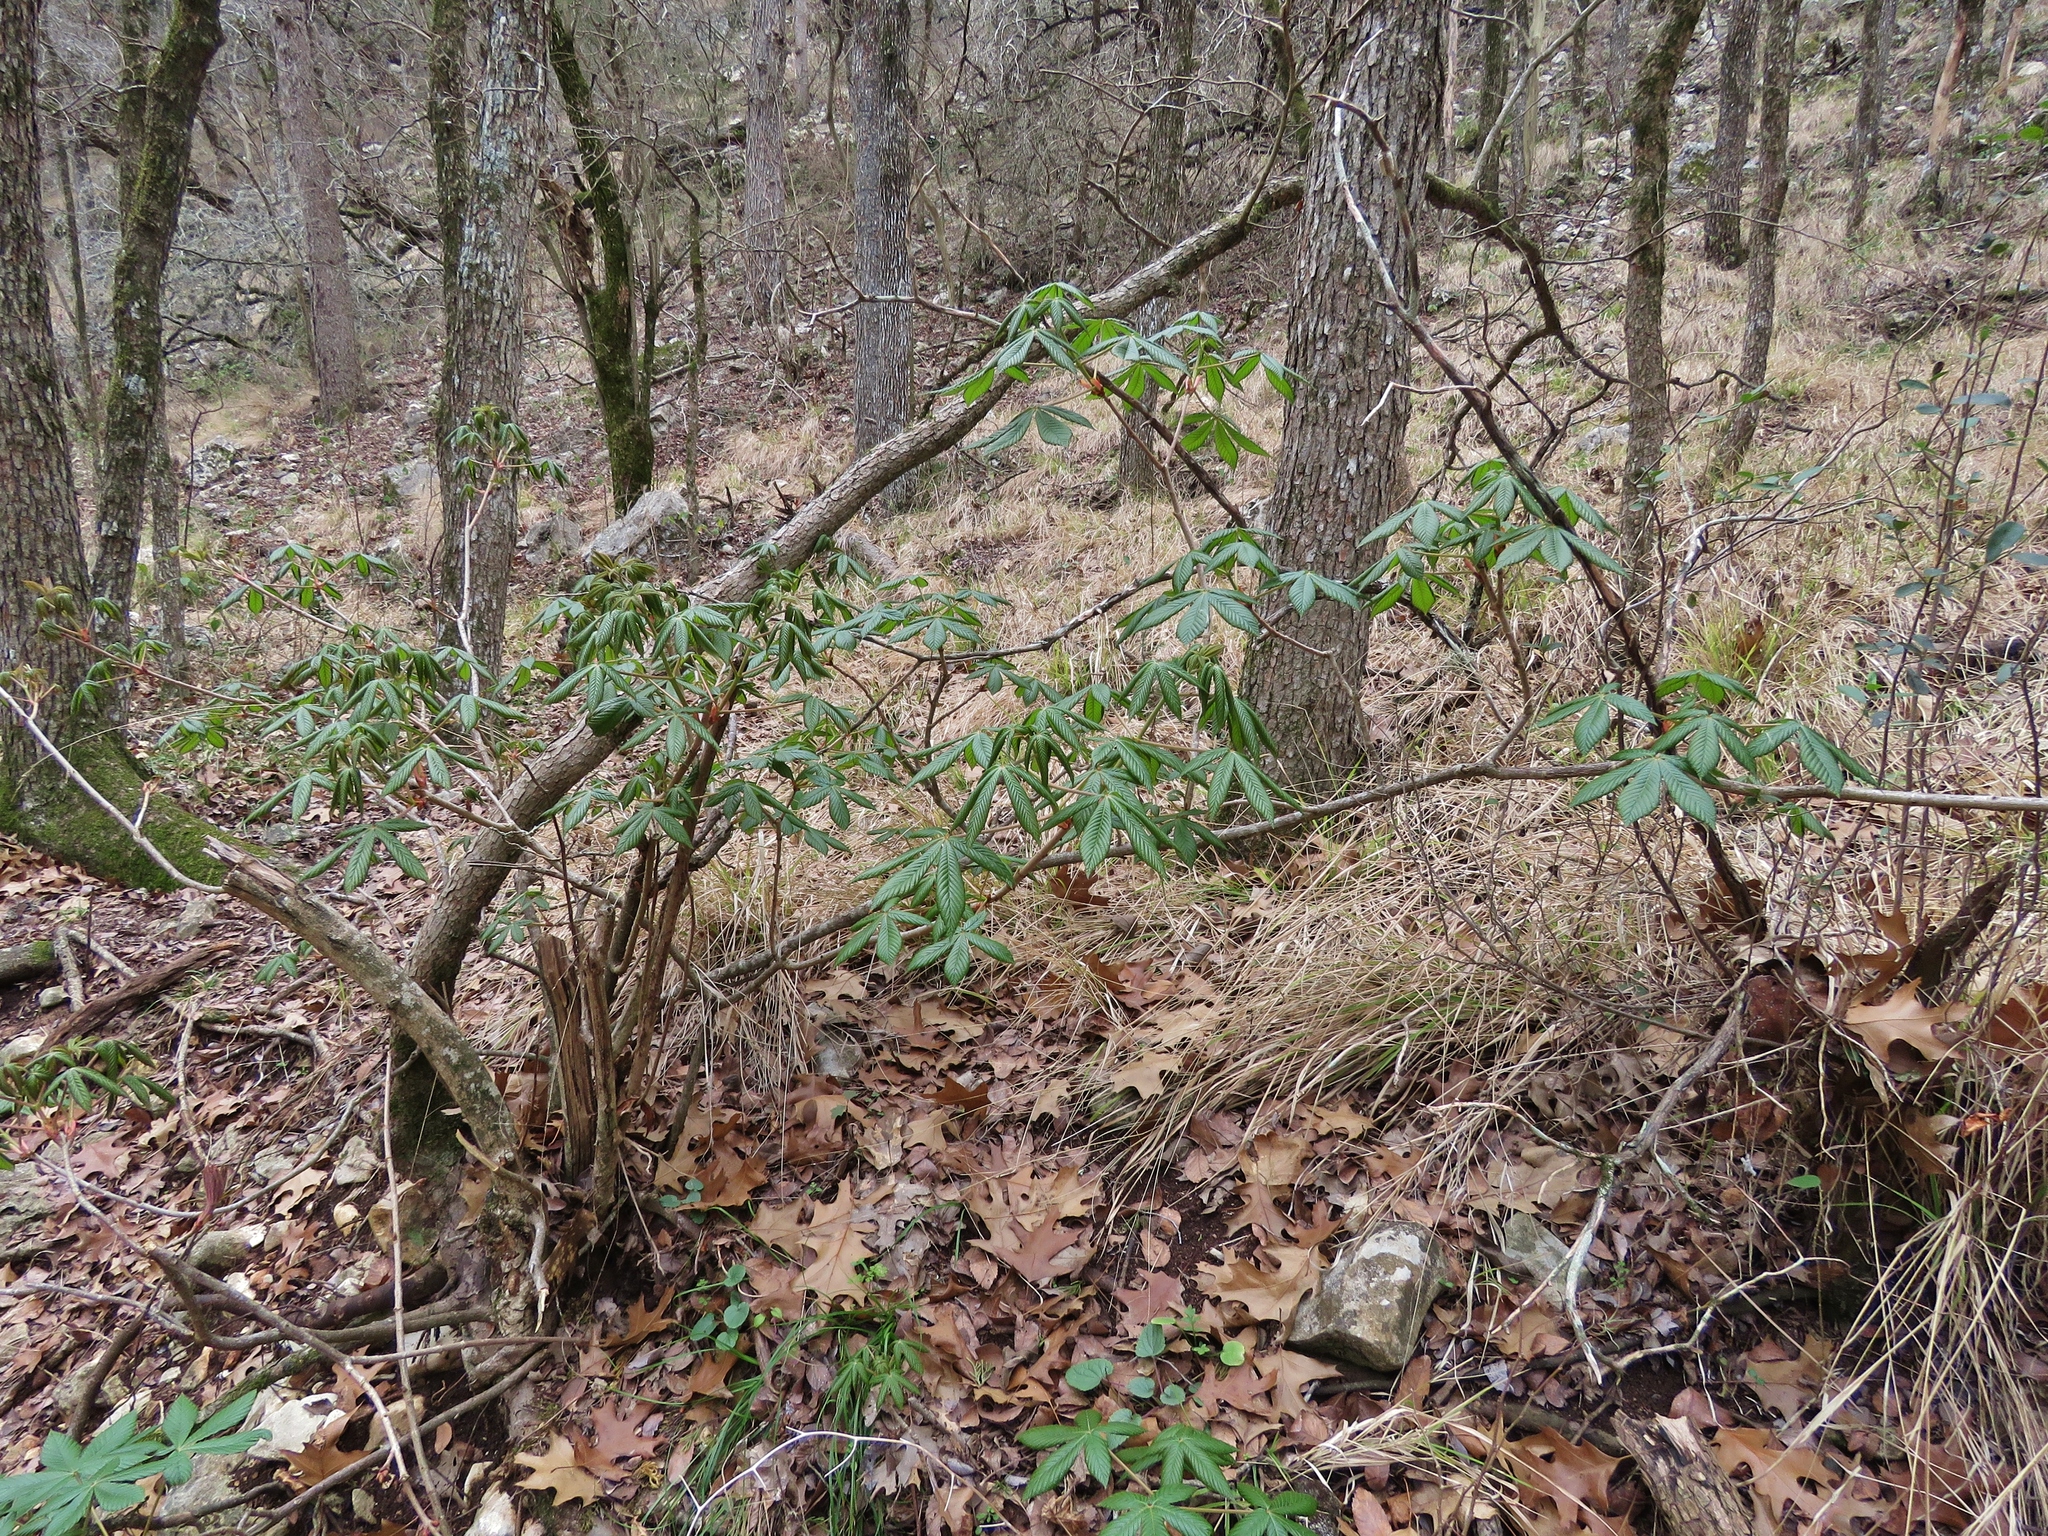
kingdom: Plantae
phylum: Tracheophyta
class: Magnoliopsida
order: Sapindales
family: Sapindaceae
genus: Aesculus
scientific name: Aesculus pavia
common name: Red buckeye
